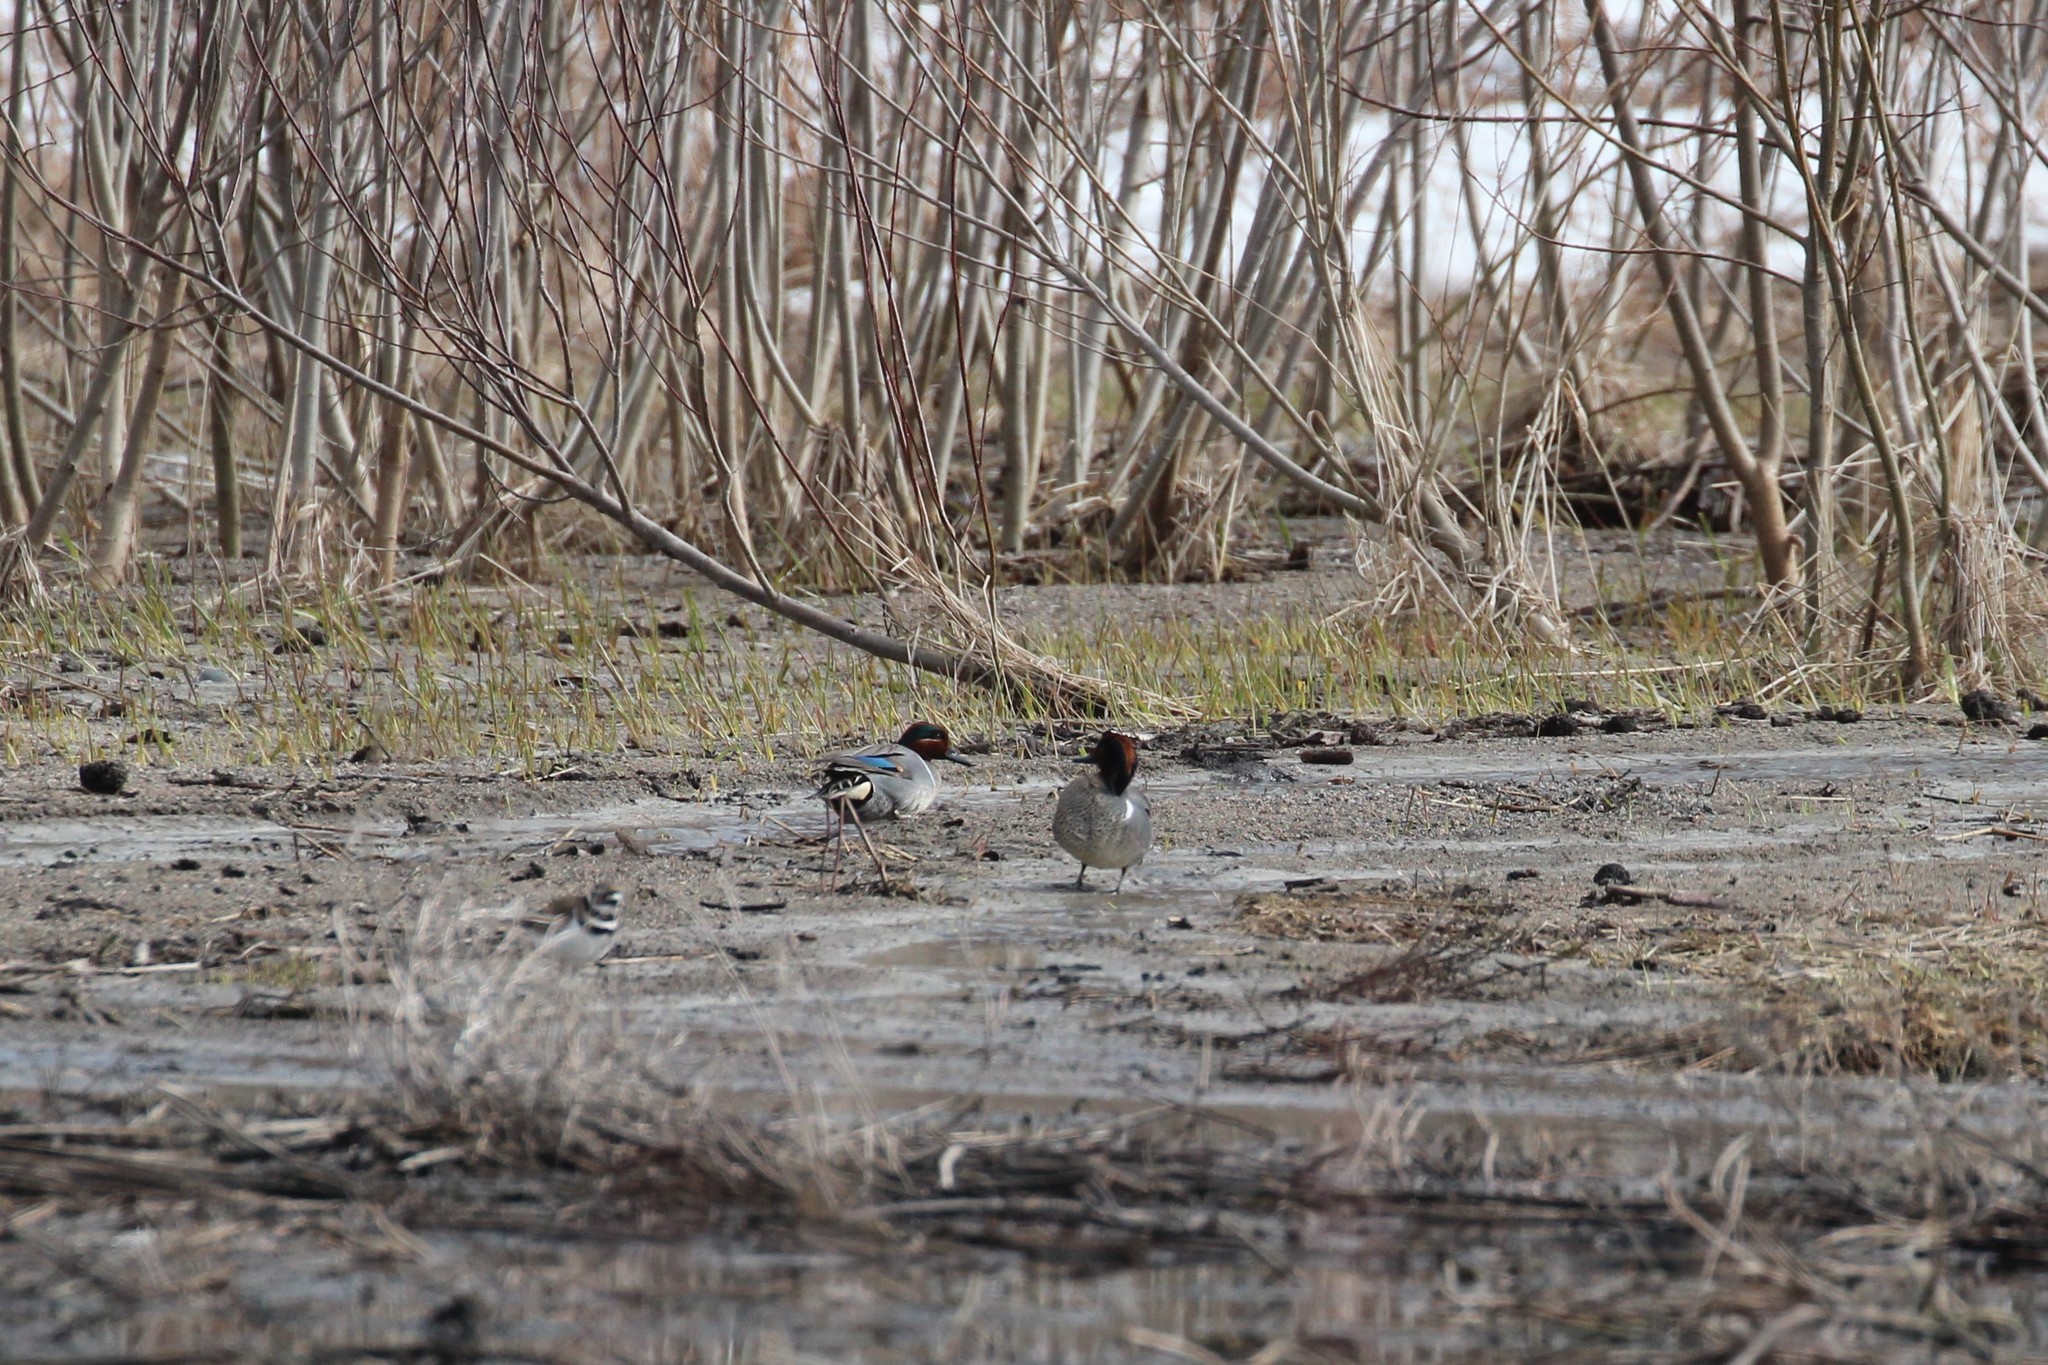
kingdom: Animalia
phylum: Chordata
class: Aves
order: Anseriformes
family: Anatidae
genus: Anas
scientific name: Anas crecca
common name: Eurasian teal
